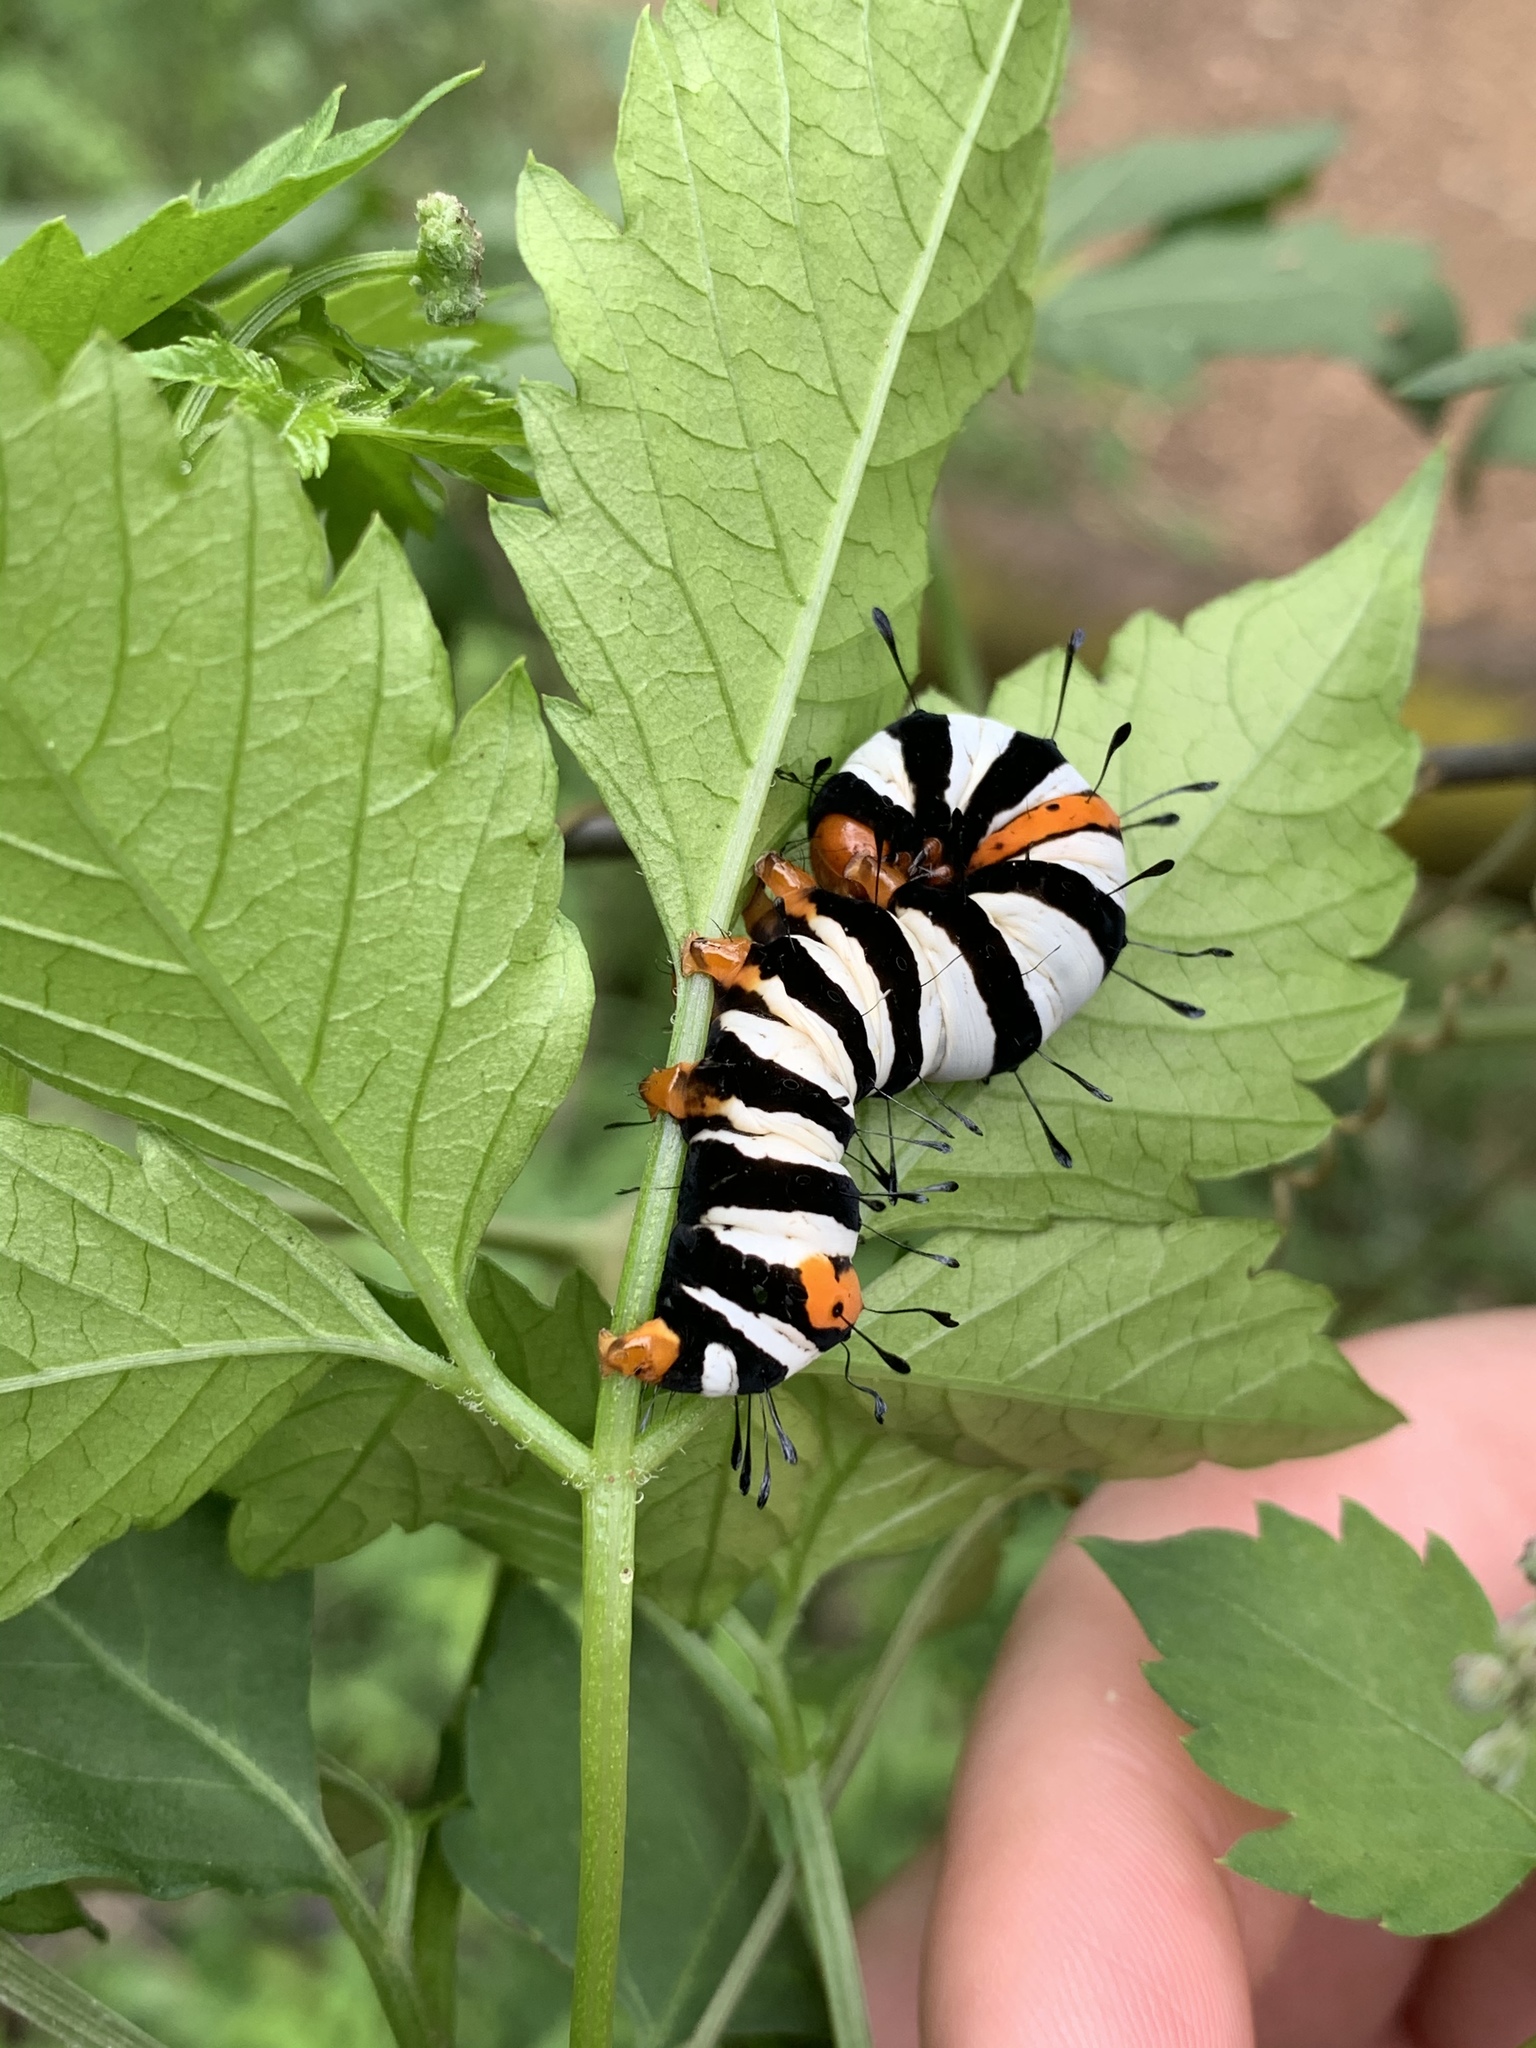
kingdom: Animalia
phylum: Arthropoda
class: Insecta
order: Lepidoptera
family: Noctuidae
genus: Agarista
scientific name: Agarista agricola
